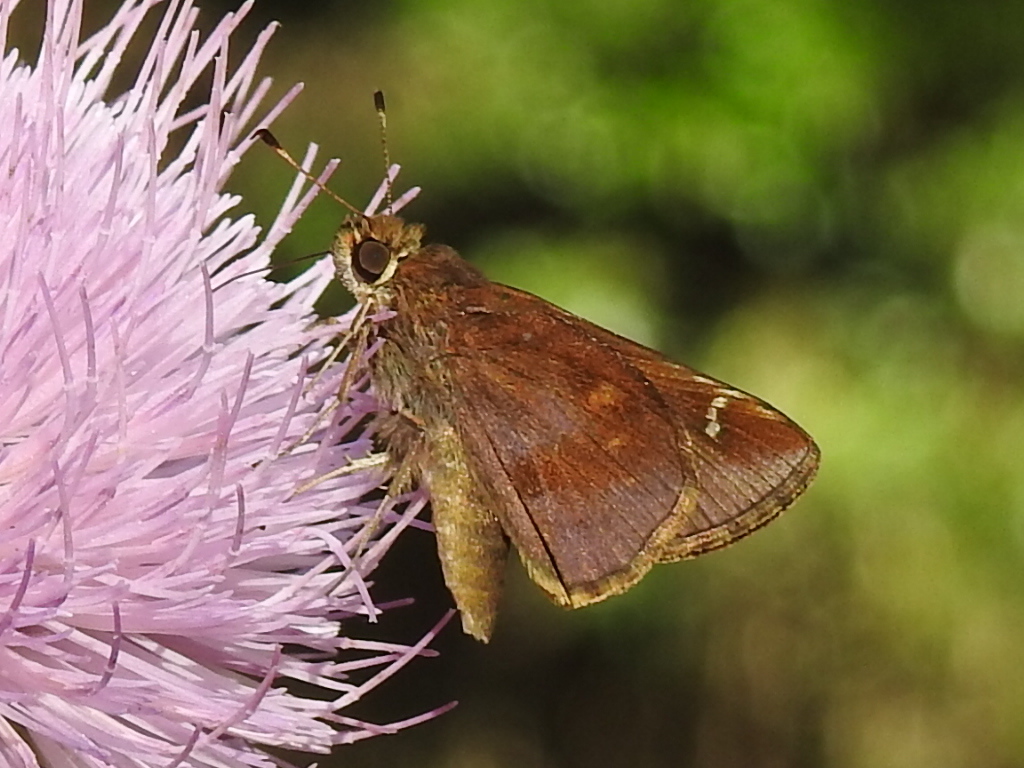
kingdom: Animalia
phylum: Arthropoda
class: Insecta
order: Lepidoptera
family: Hesperiidae
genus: Lerema
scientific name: Lerema accius
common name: Clouded skipper
